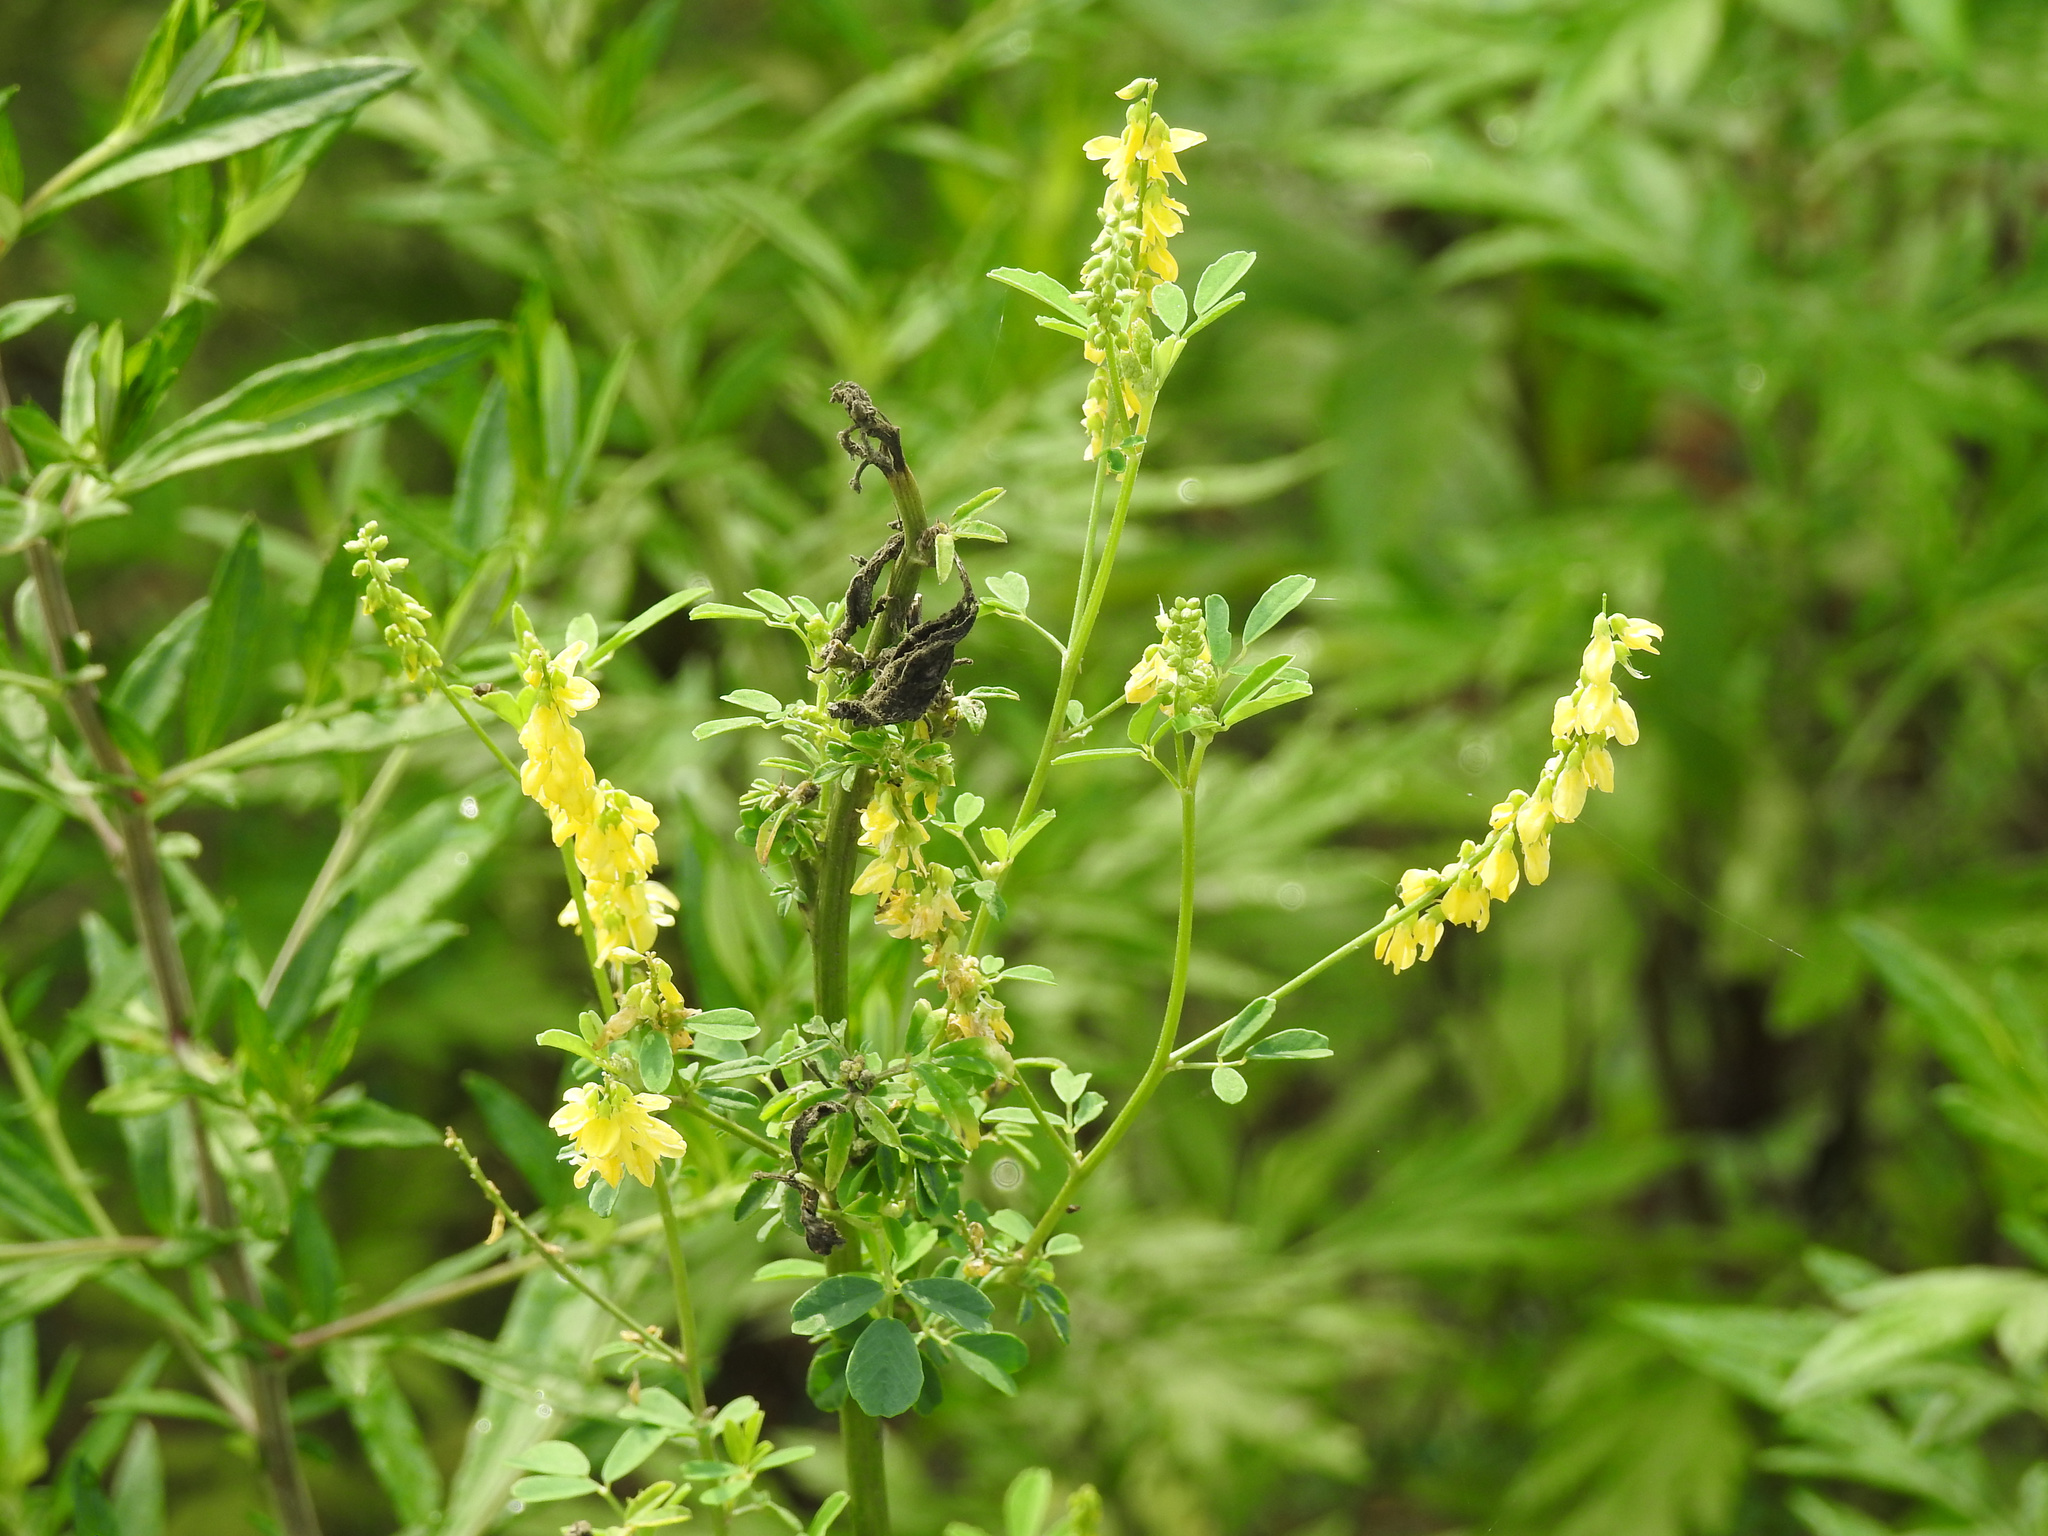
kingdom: Plantae
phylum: Tracheophyta
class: Magnoliopsida
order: Fabales
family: Fabaceae
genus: Melilotus
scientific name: Melilotus officinalis
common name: Sweetclover
